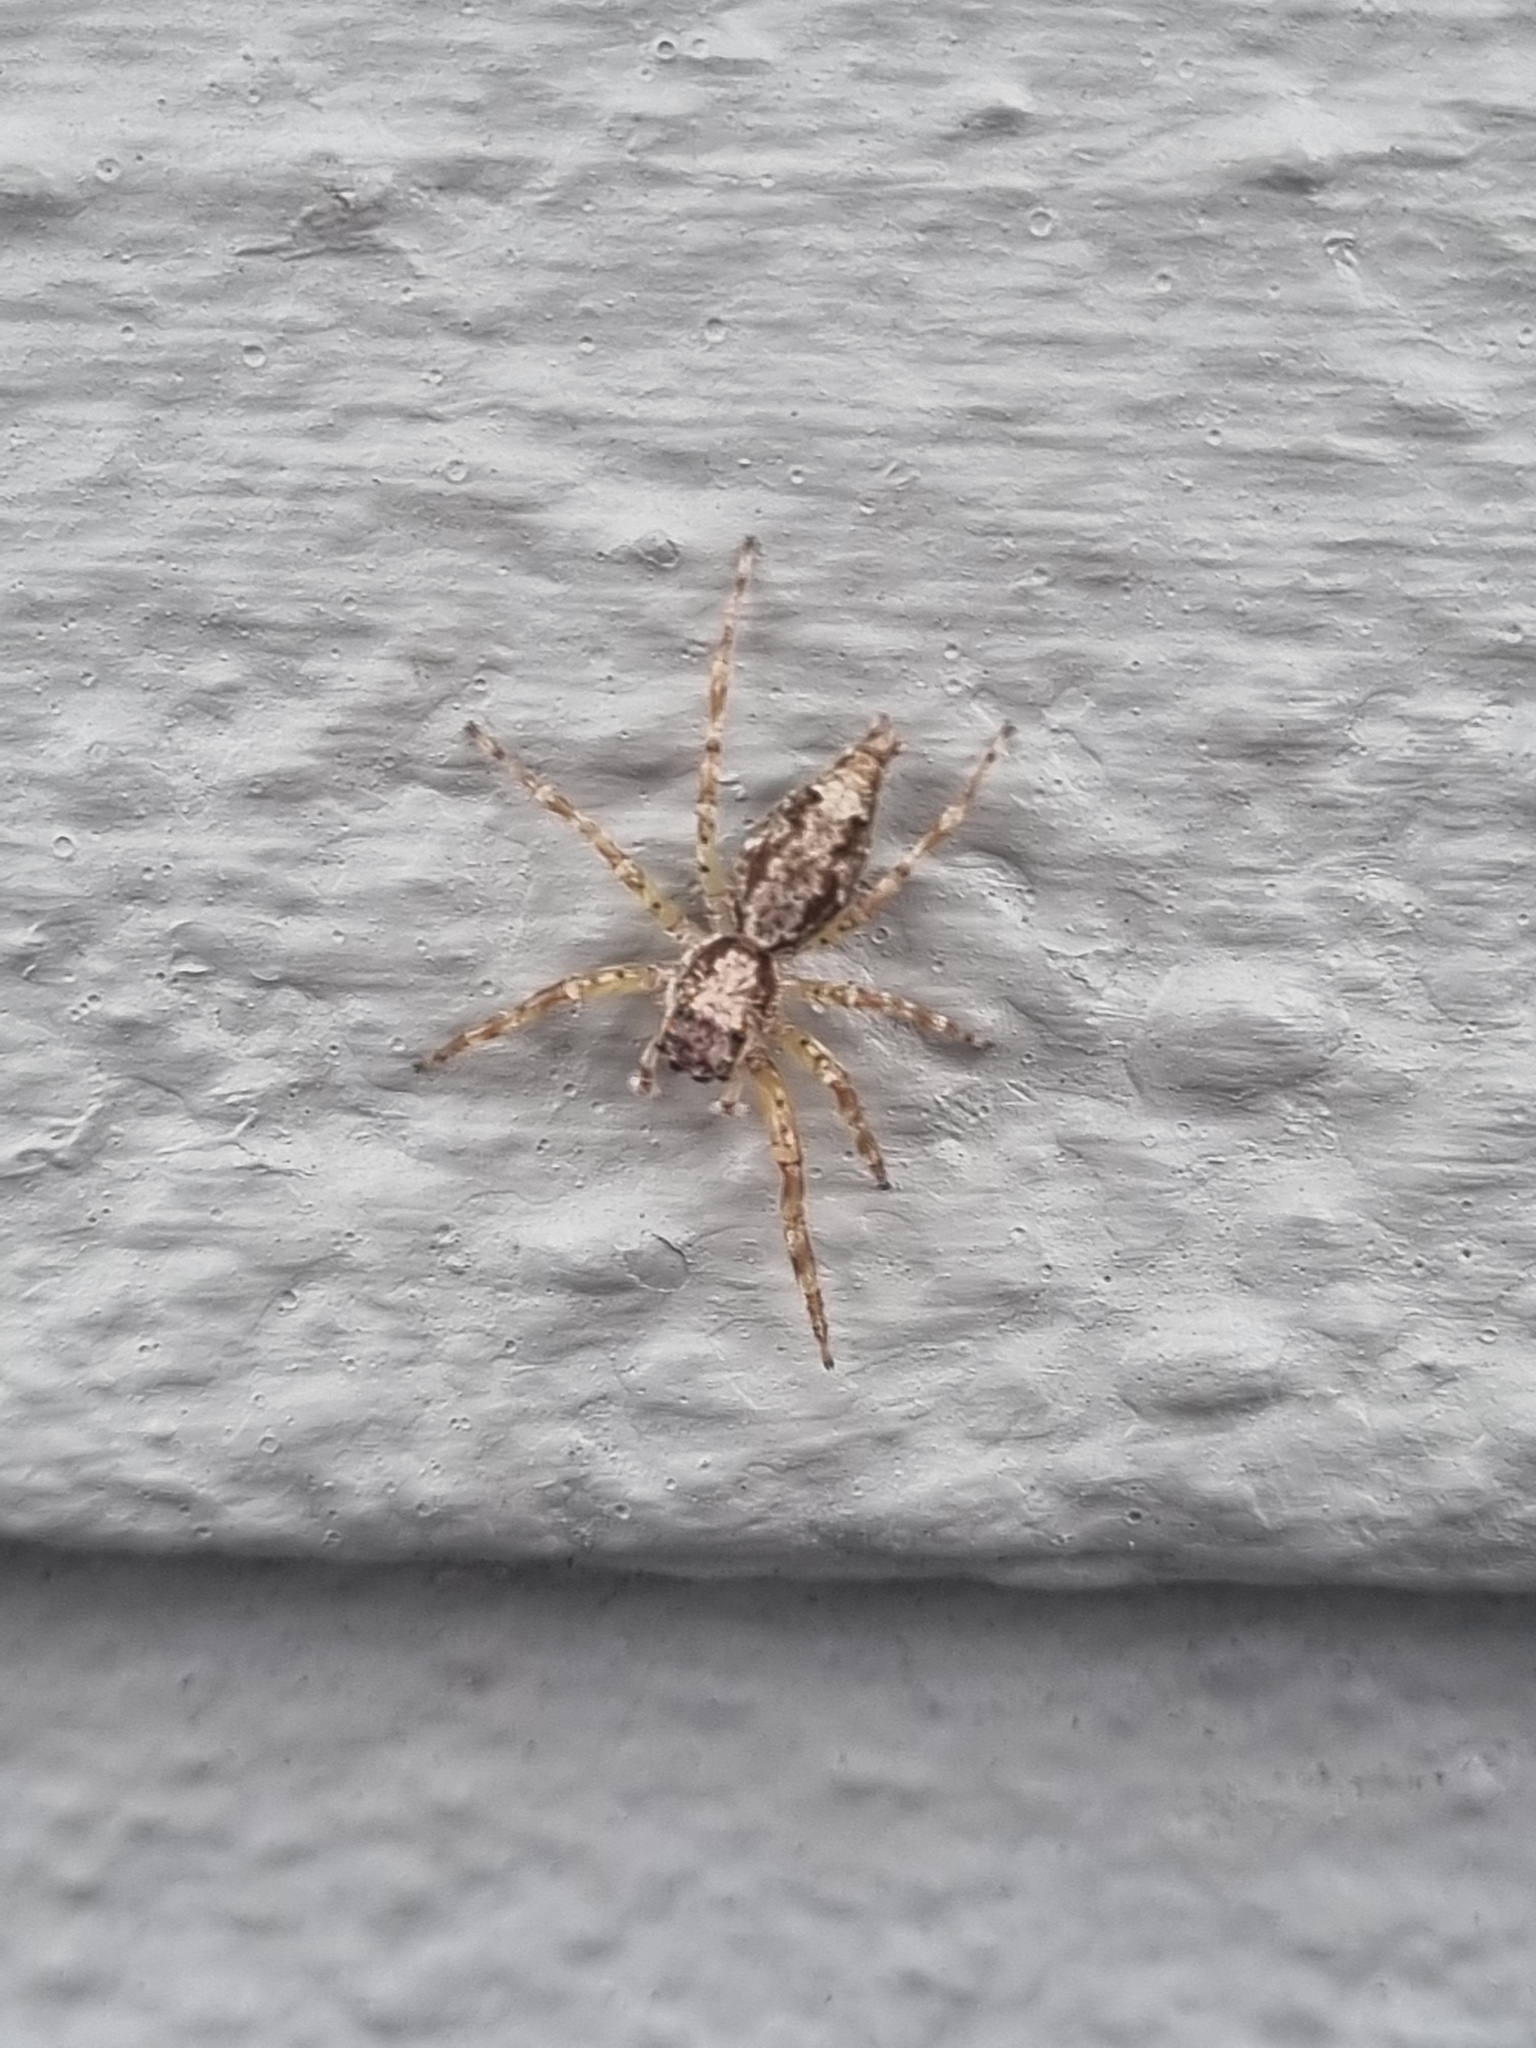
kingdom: Animalia
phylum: Arthropoda
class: Arachnida
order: Araneae
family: Salticidae
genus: Helpis
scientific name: Helpis minitabunda
